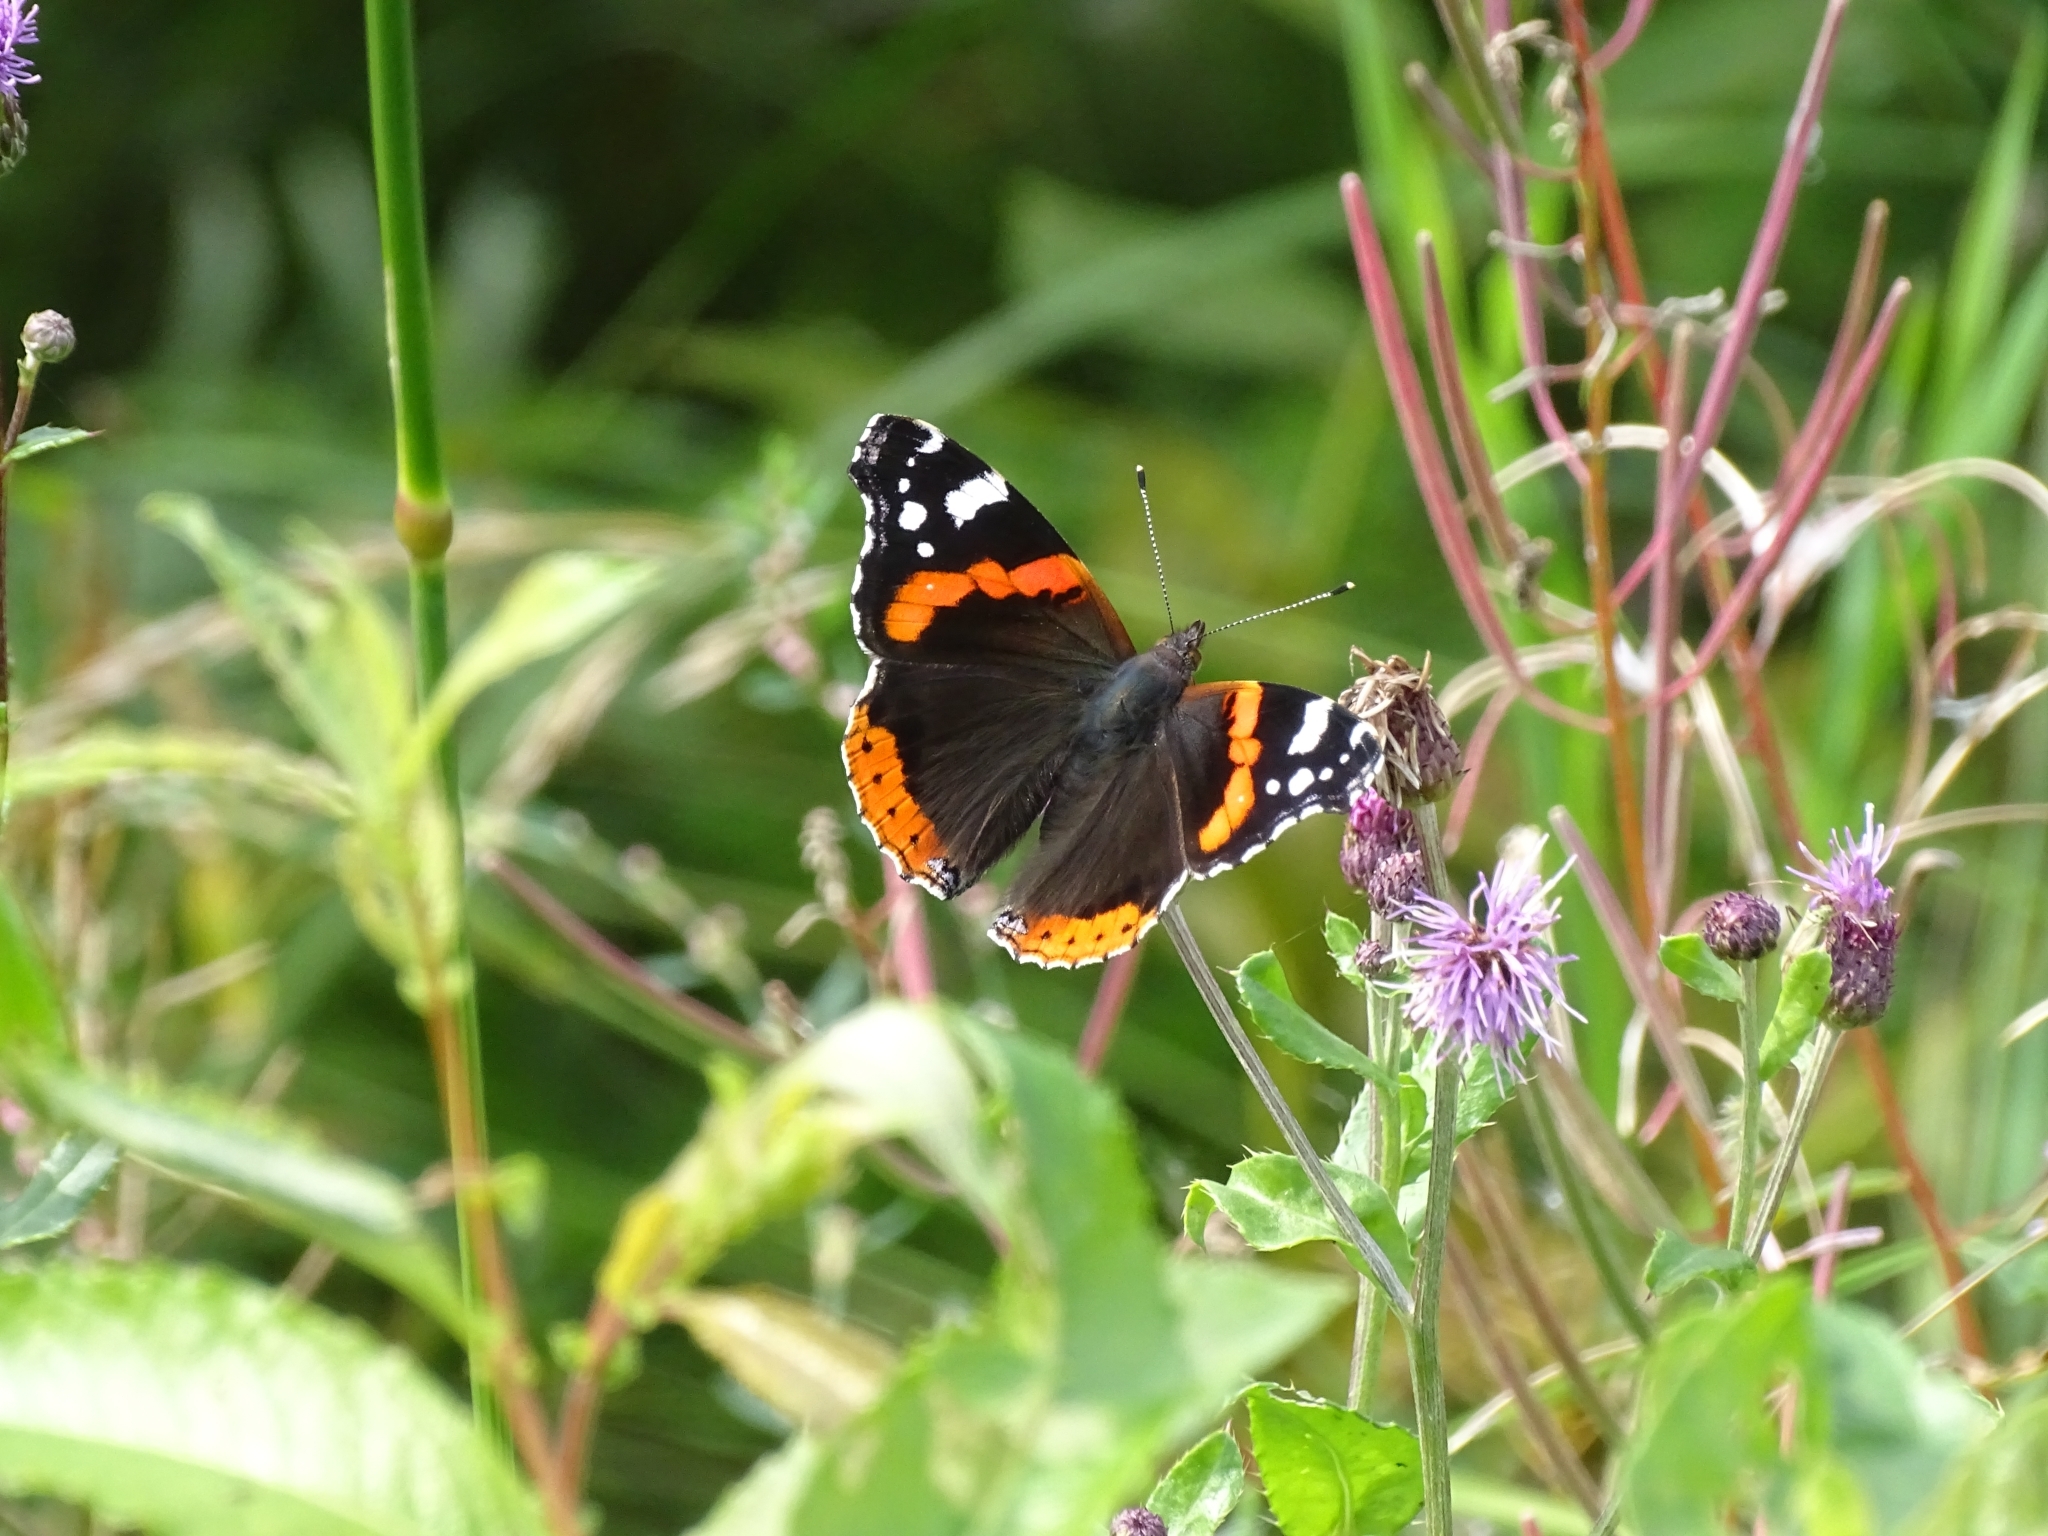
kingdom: Animalia
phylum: Arthropoda
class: Insecta
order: Lepidoptera
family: Nymphalidae
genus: Vanessa
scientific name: Vanessa atalanta
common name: Red admiral
